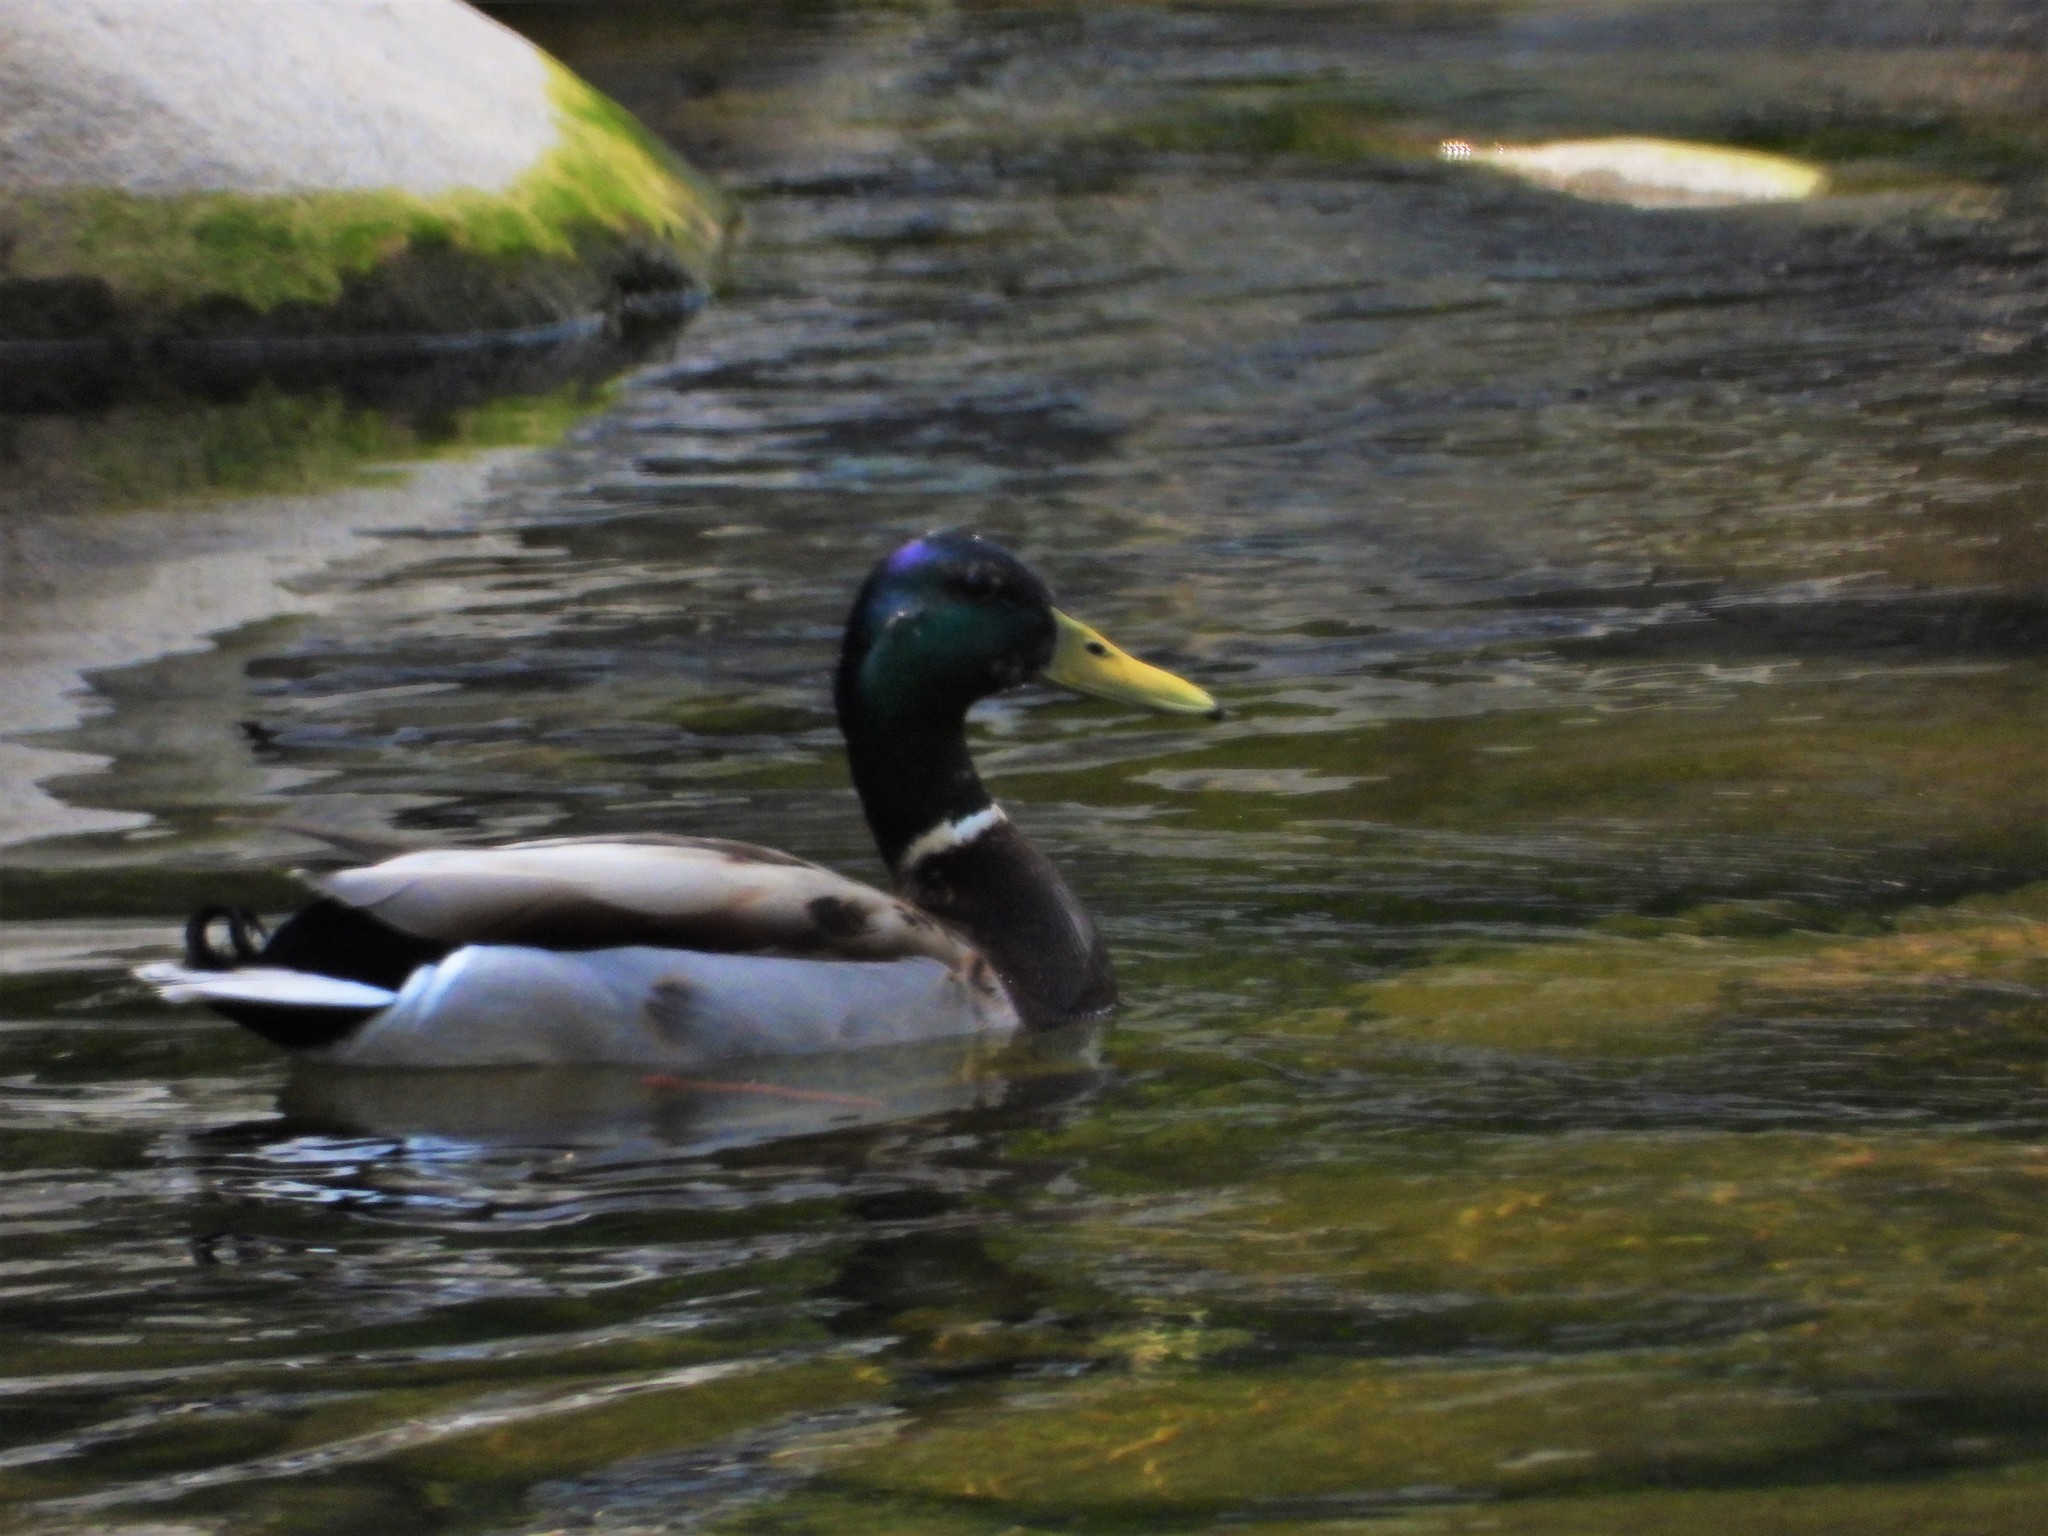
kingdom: Animalia
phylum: Chordata
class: Aves
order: Anseriformes
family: Anatidae
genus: Anas
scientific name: Anas platyrhynchos
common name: Mallard
